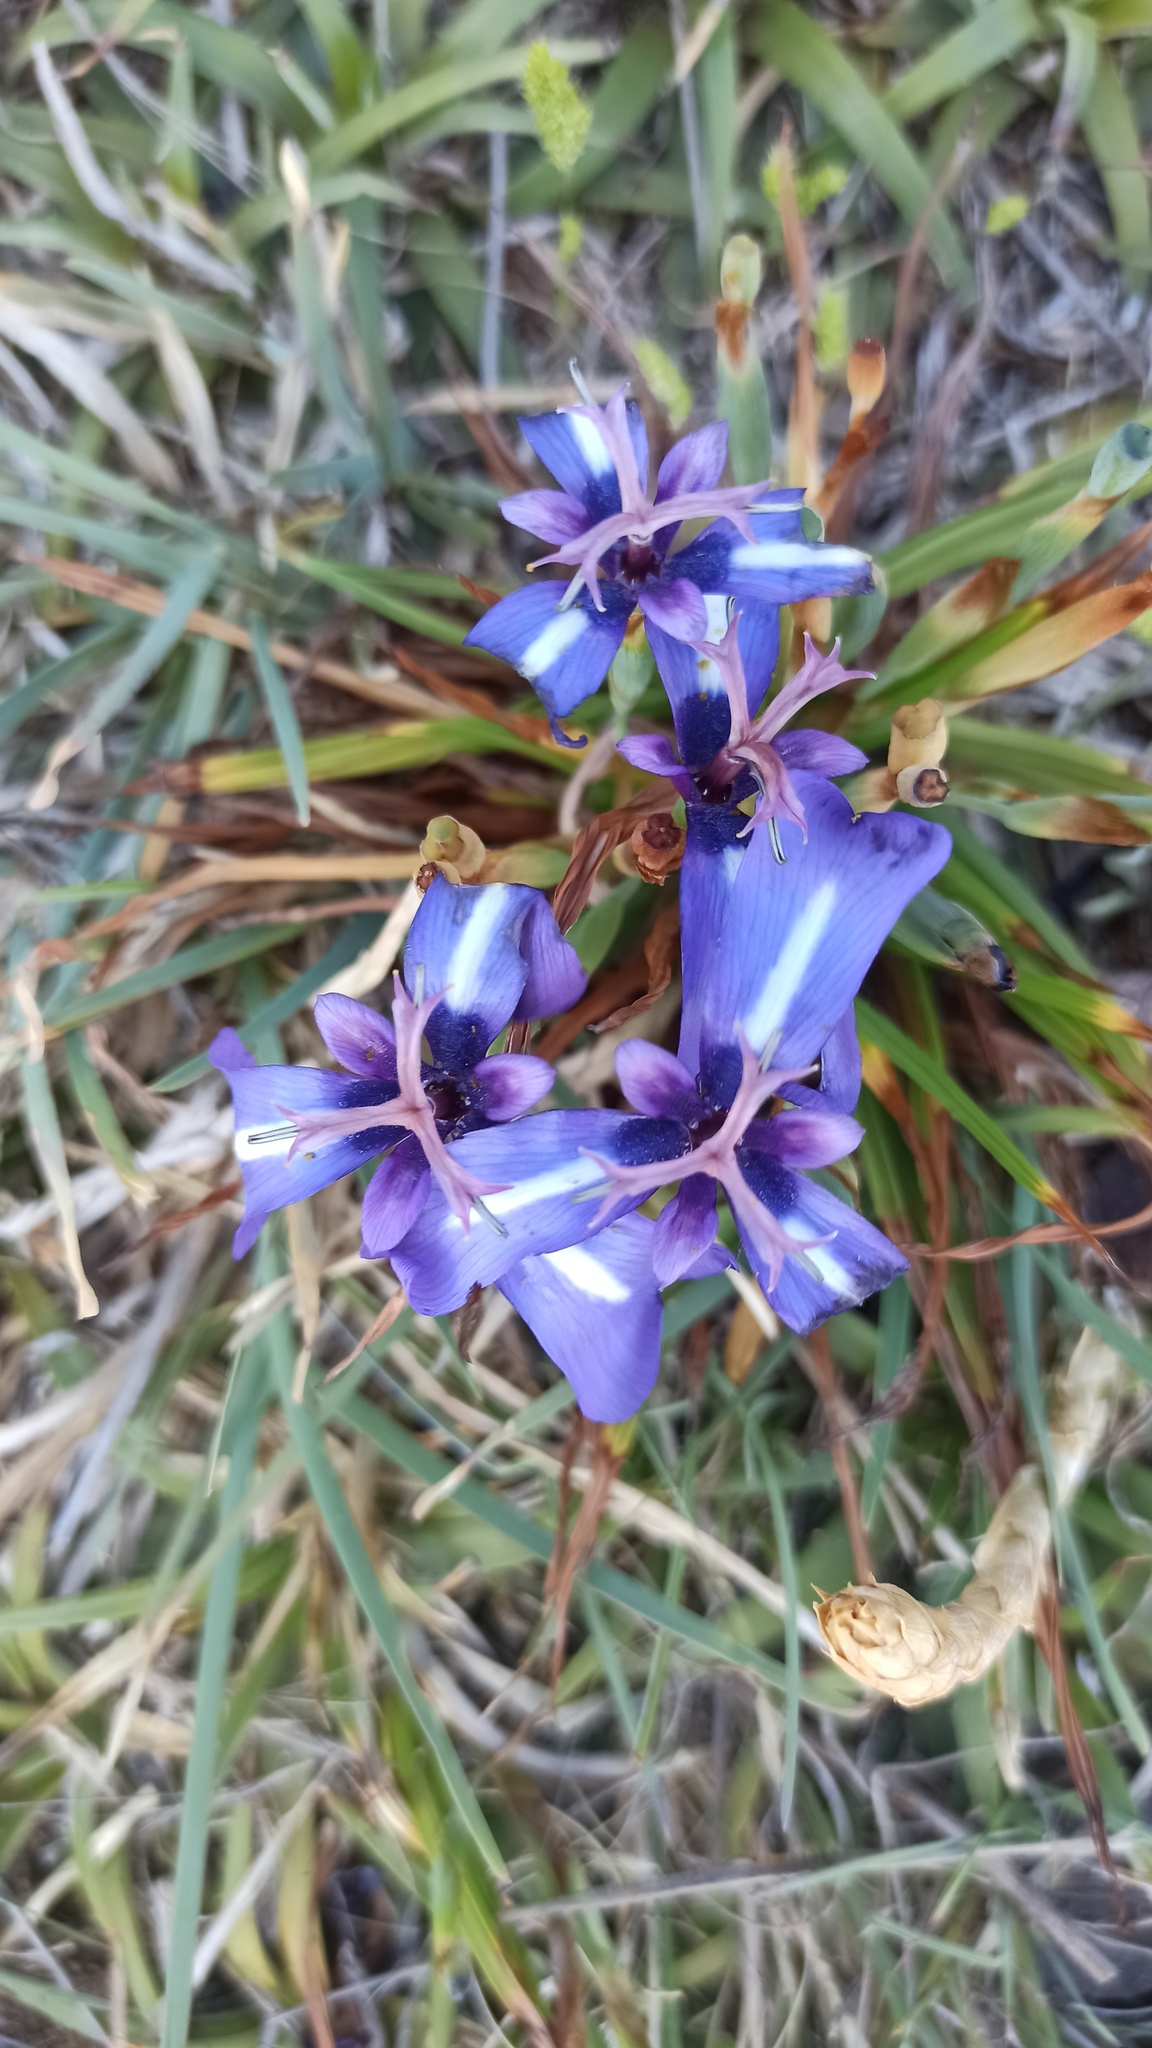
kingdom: Plantae
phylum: Tracheophyta
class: Liliopsida
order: Asparagales
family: Iridaceae
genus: Herbertia
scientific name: Herbertia pulchella
